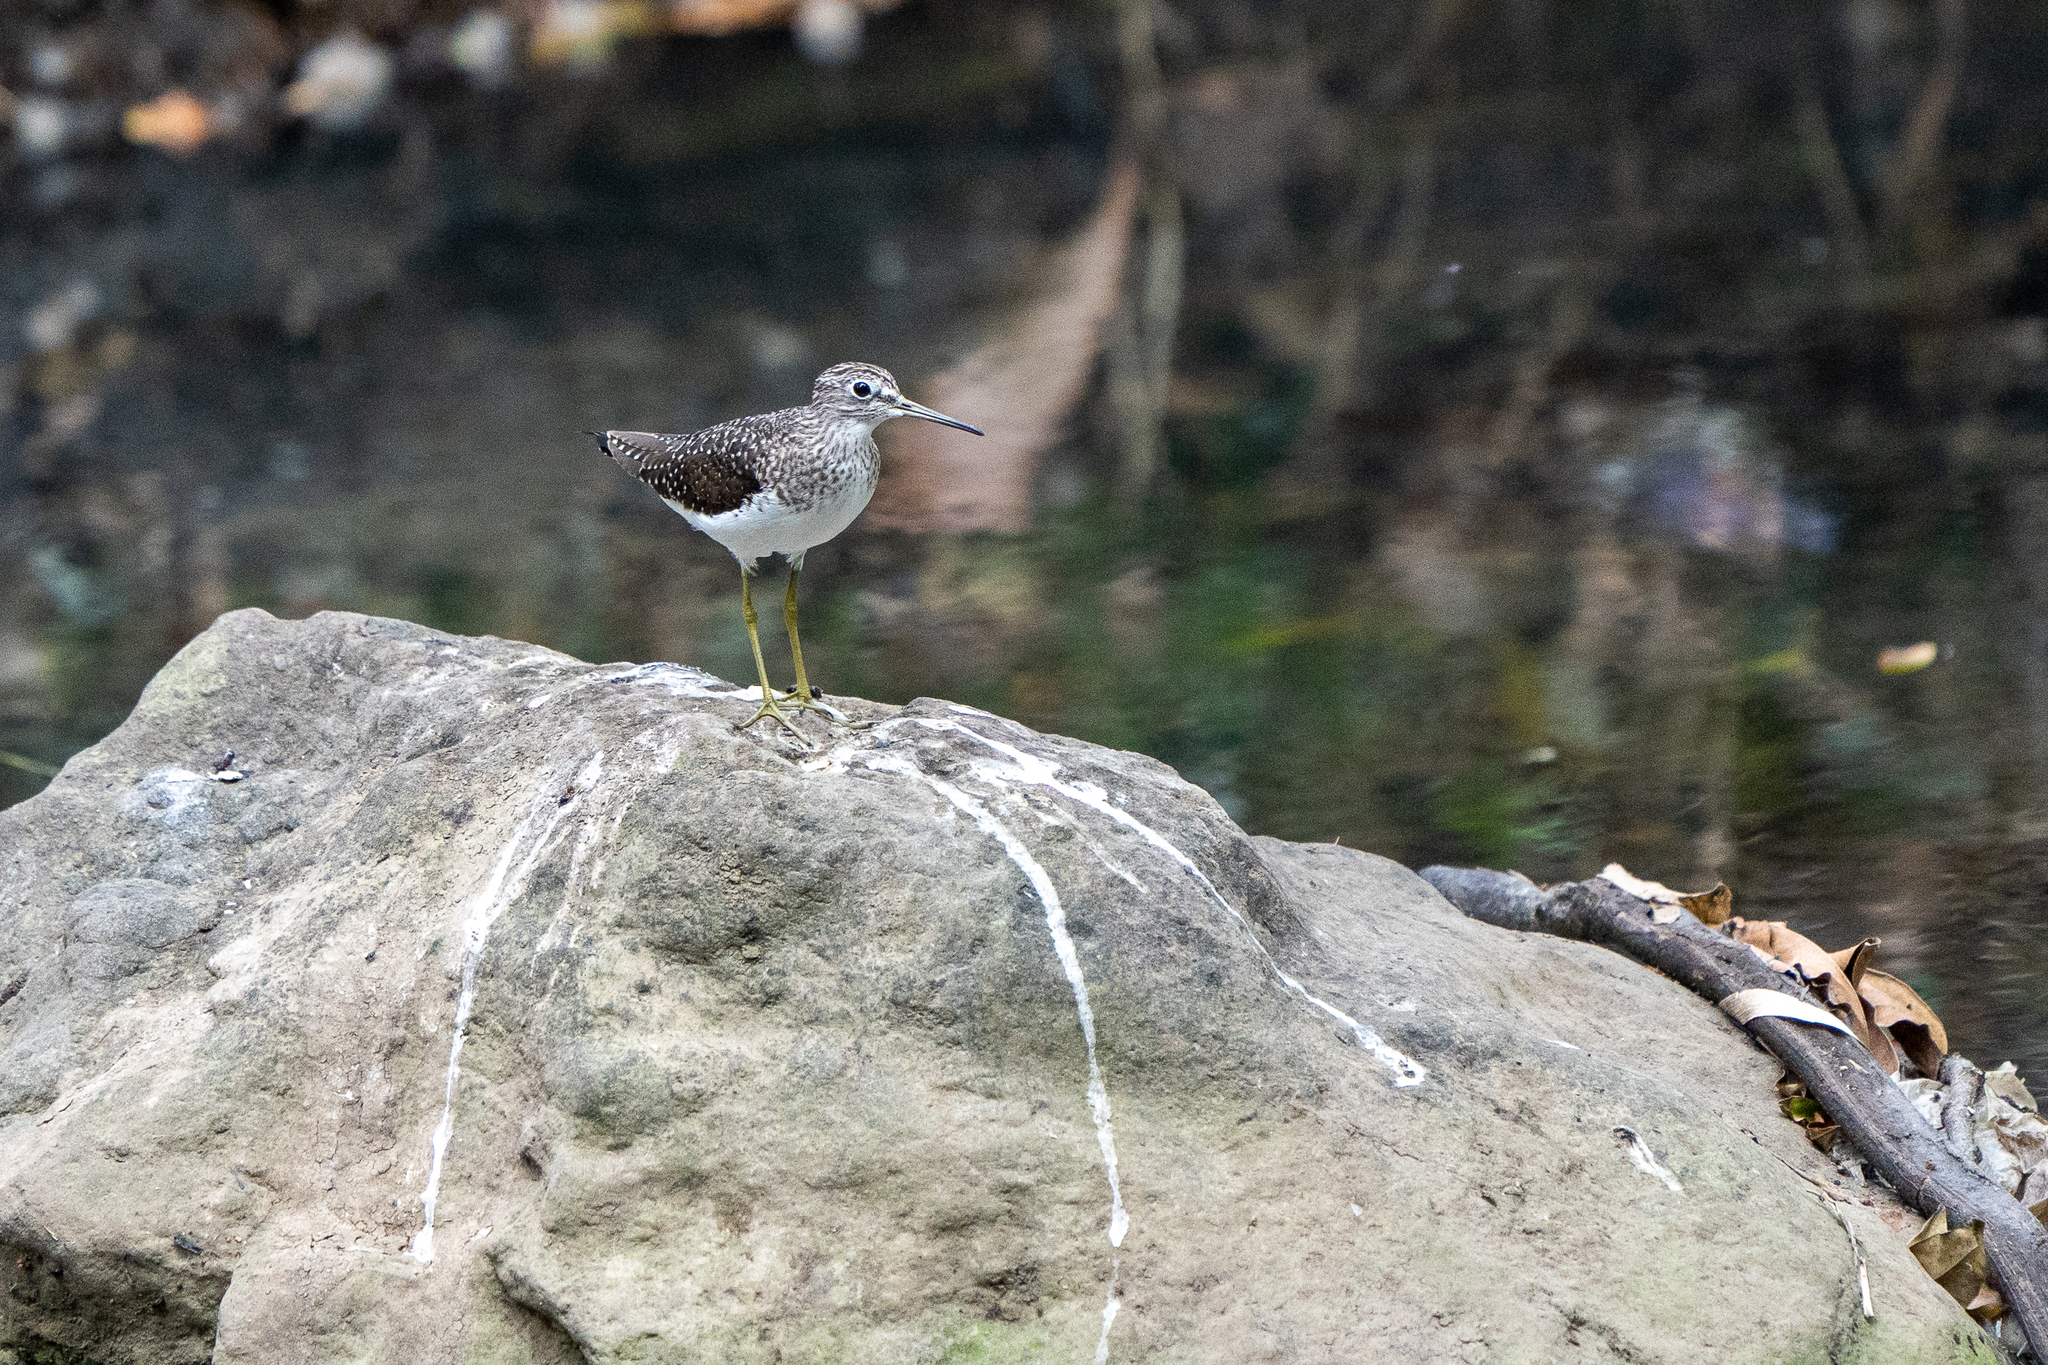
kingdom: Animalia
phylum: Chordata
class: Aves
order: Charadriiformes
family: Scolopacidae
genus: Tringa
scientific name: Tringa solitaria
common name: Solitary sandpiper
